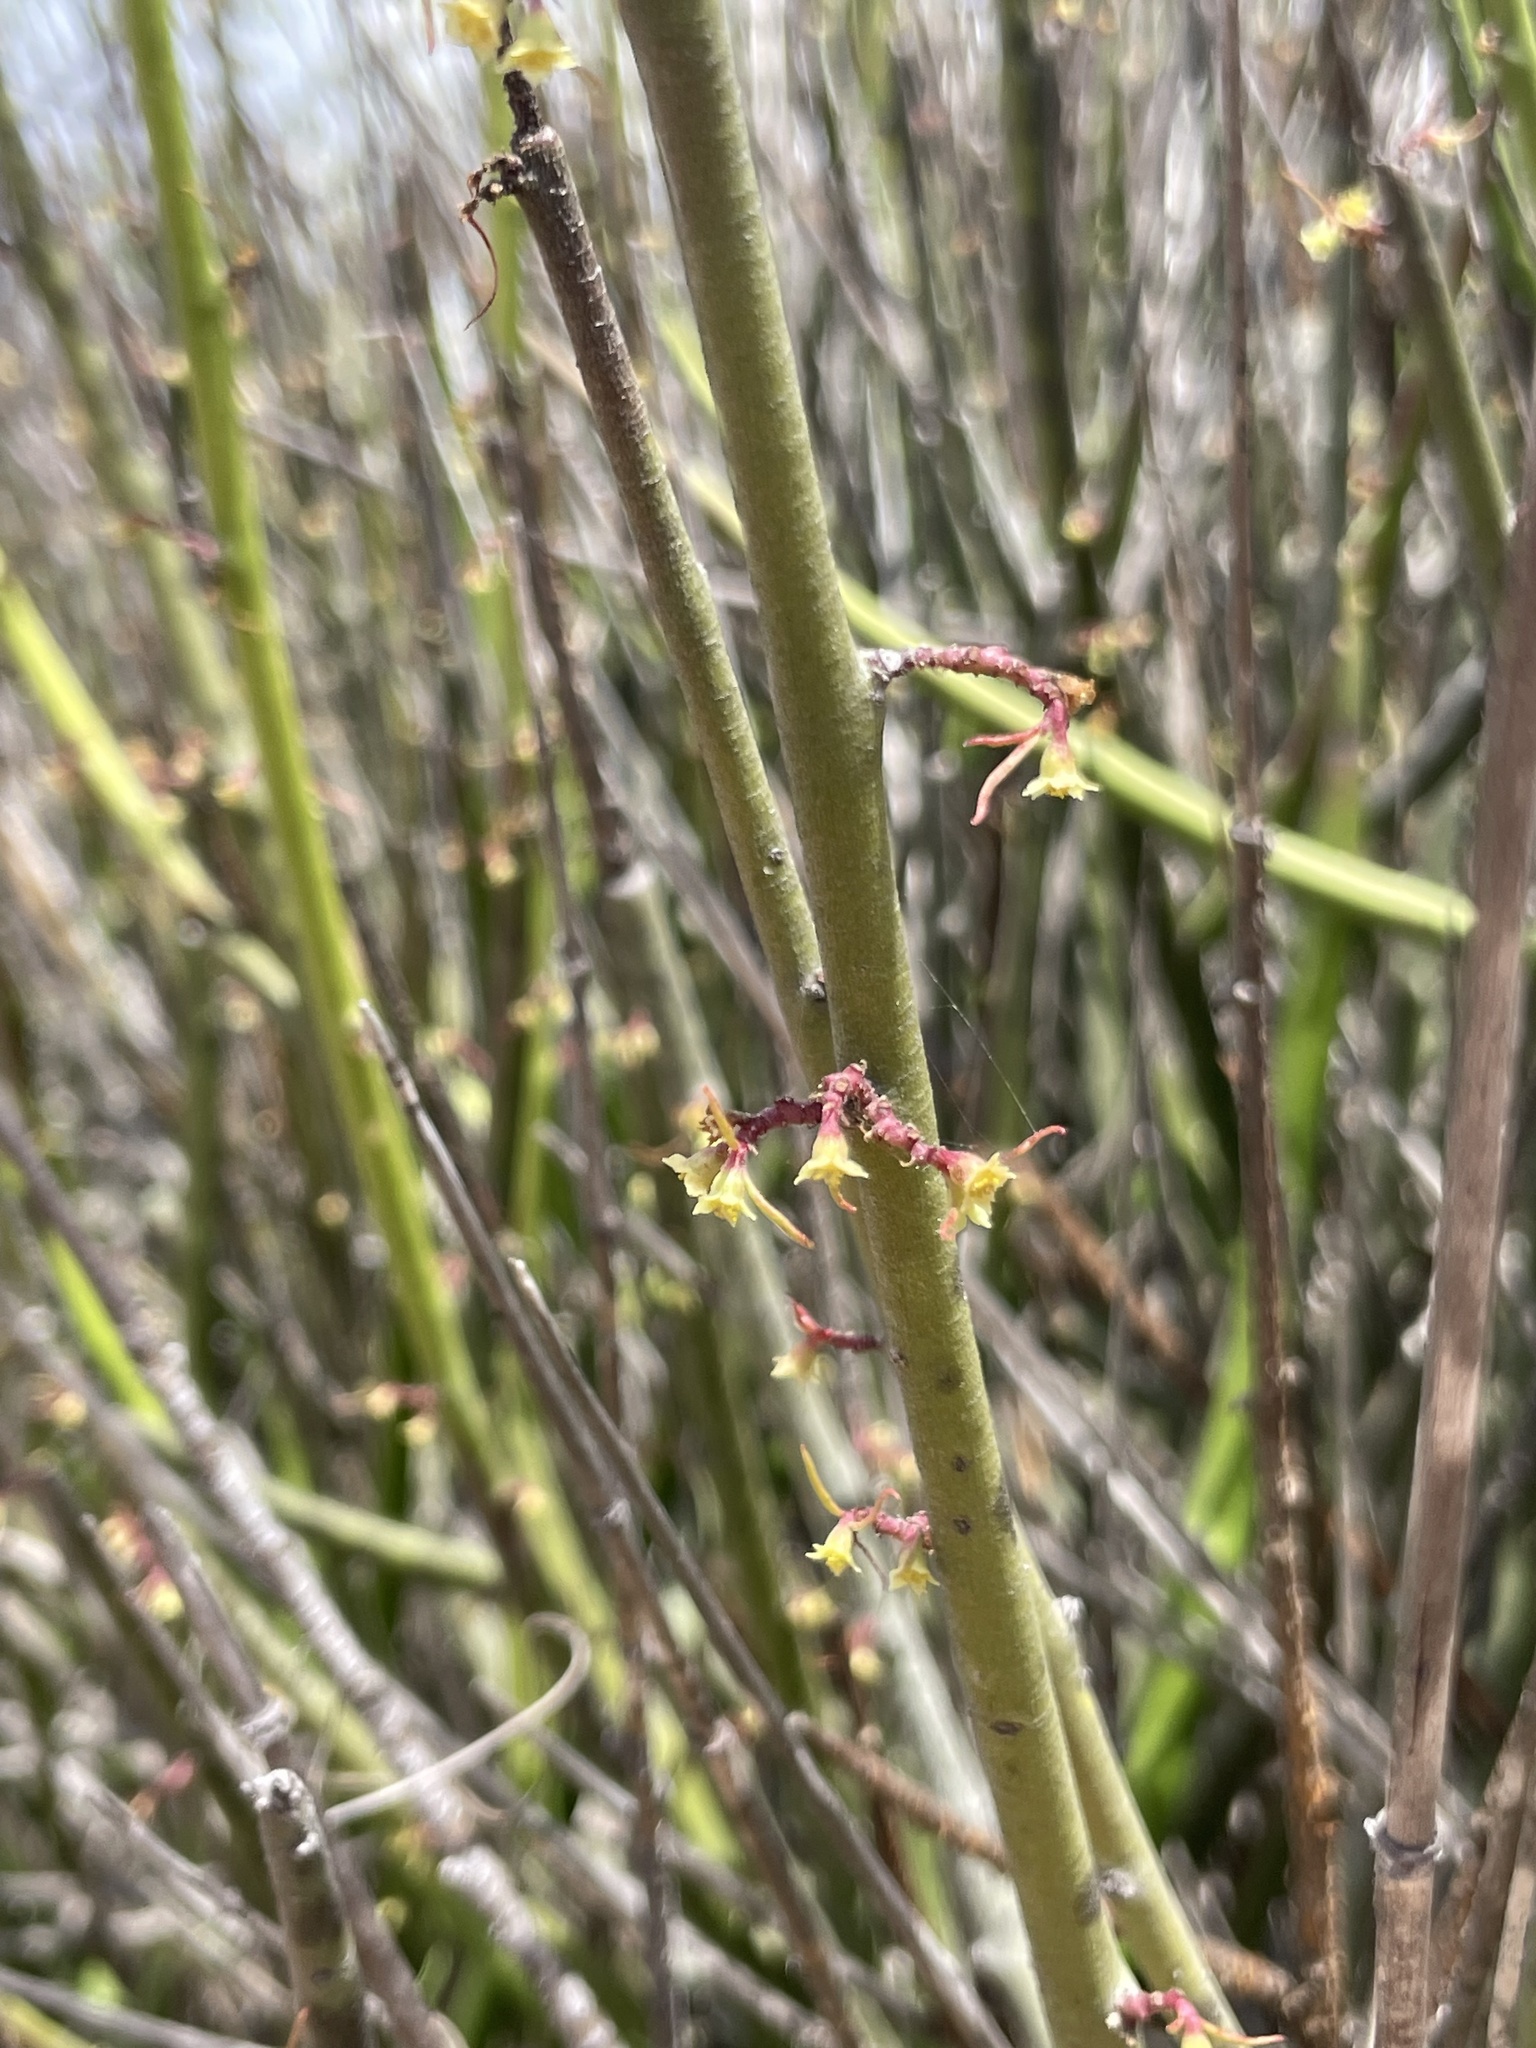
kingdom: Plantae
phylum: Tracheophyta
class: Magnoliopsida
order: Malpighiales
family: Euphorbiaceae
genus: Euphorbia
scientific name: Euphorbia ceroderma
